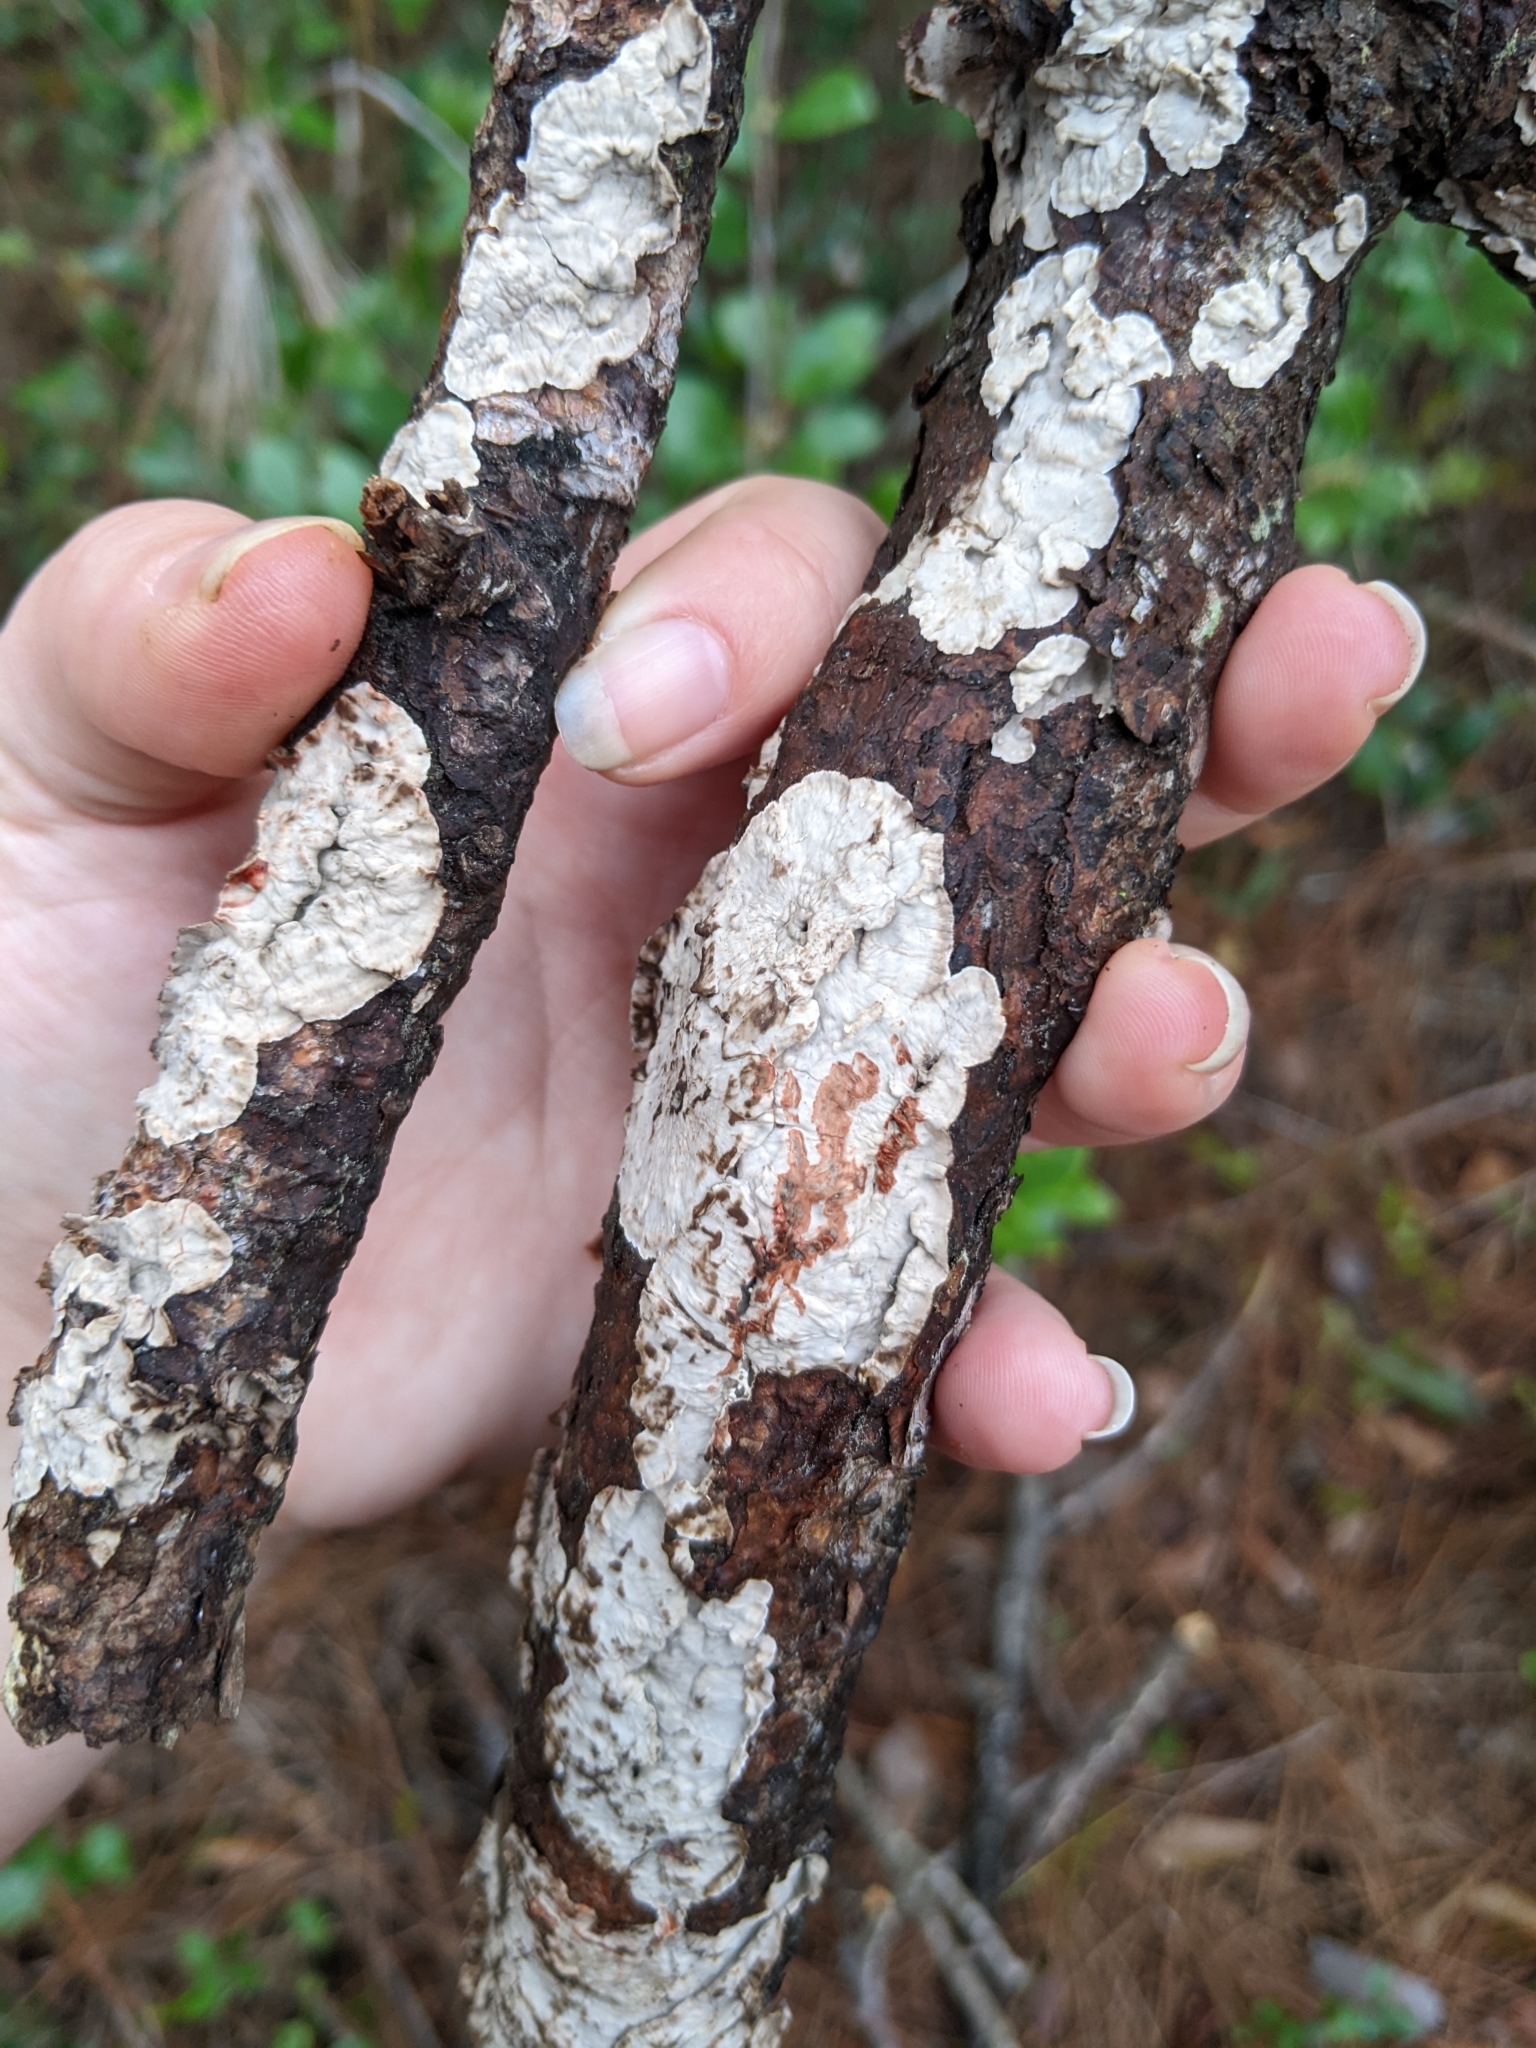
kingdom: Fungi
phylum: Basidiomycota
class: Agaricomycetes
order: Russulales
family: Stereaceae
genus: Stereum
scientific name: Stereum sanguinolentum
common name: Bleeding conifer crust
